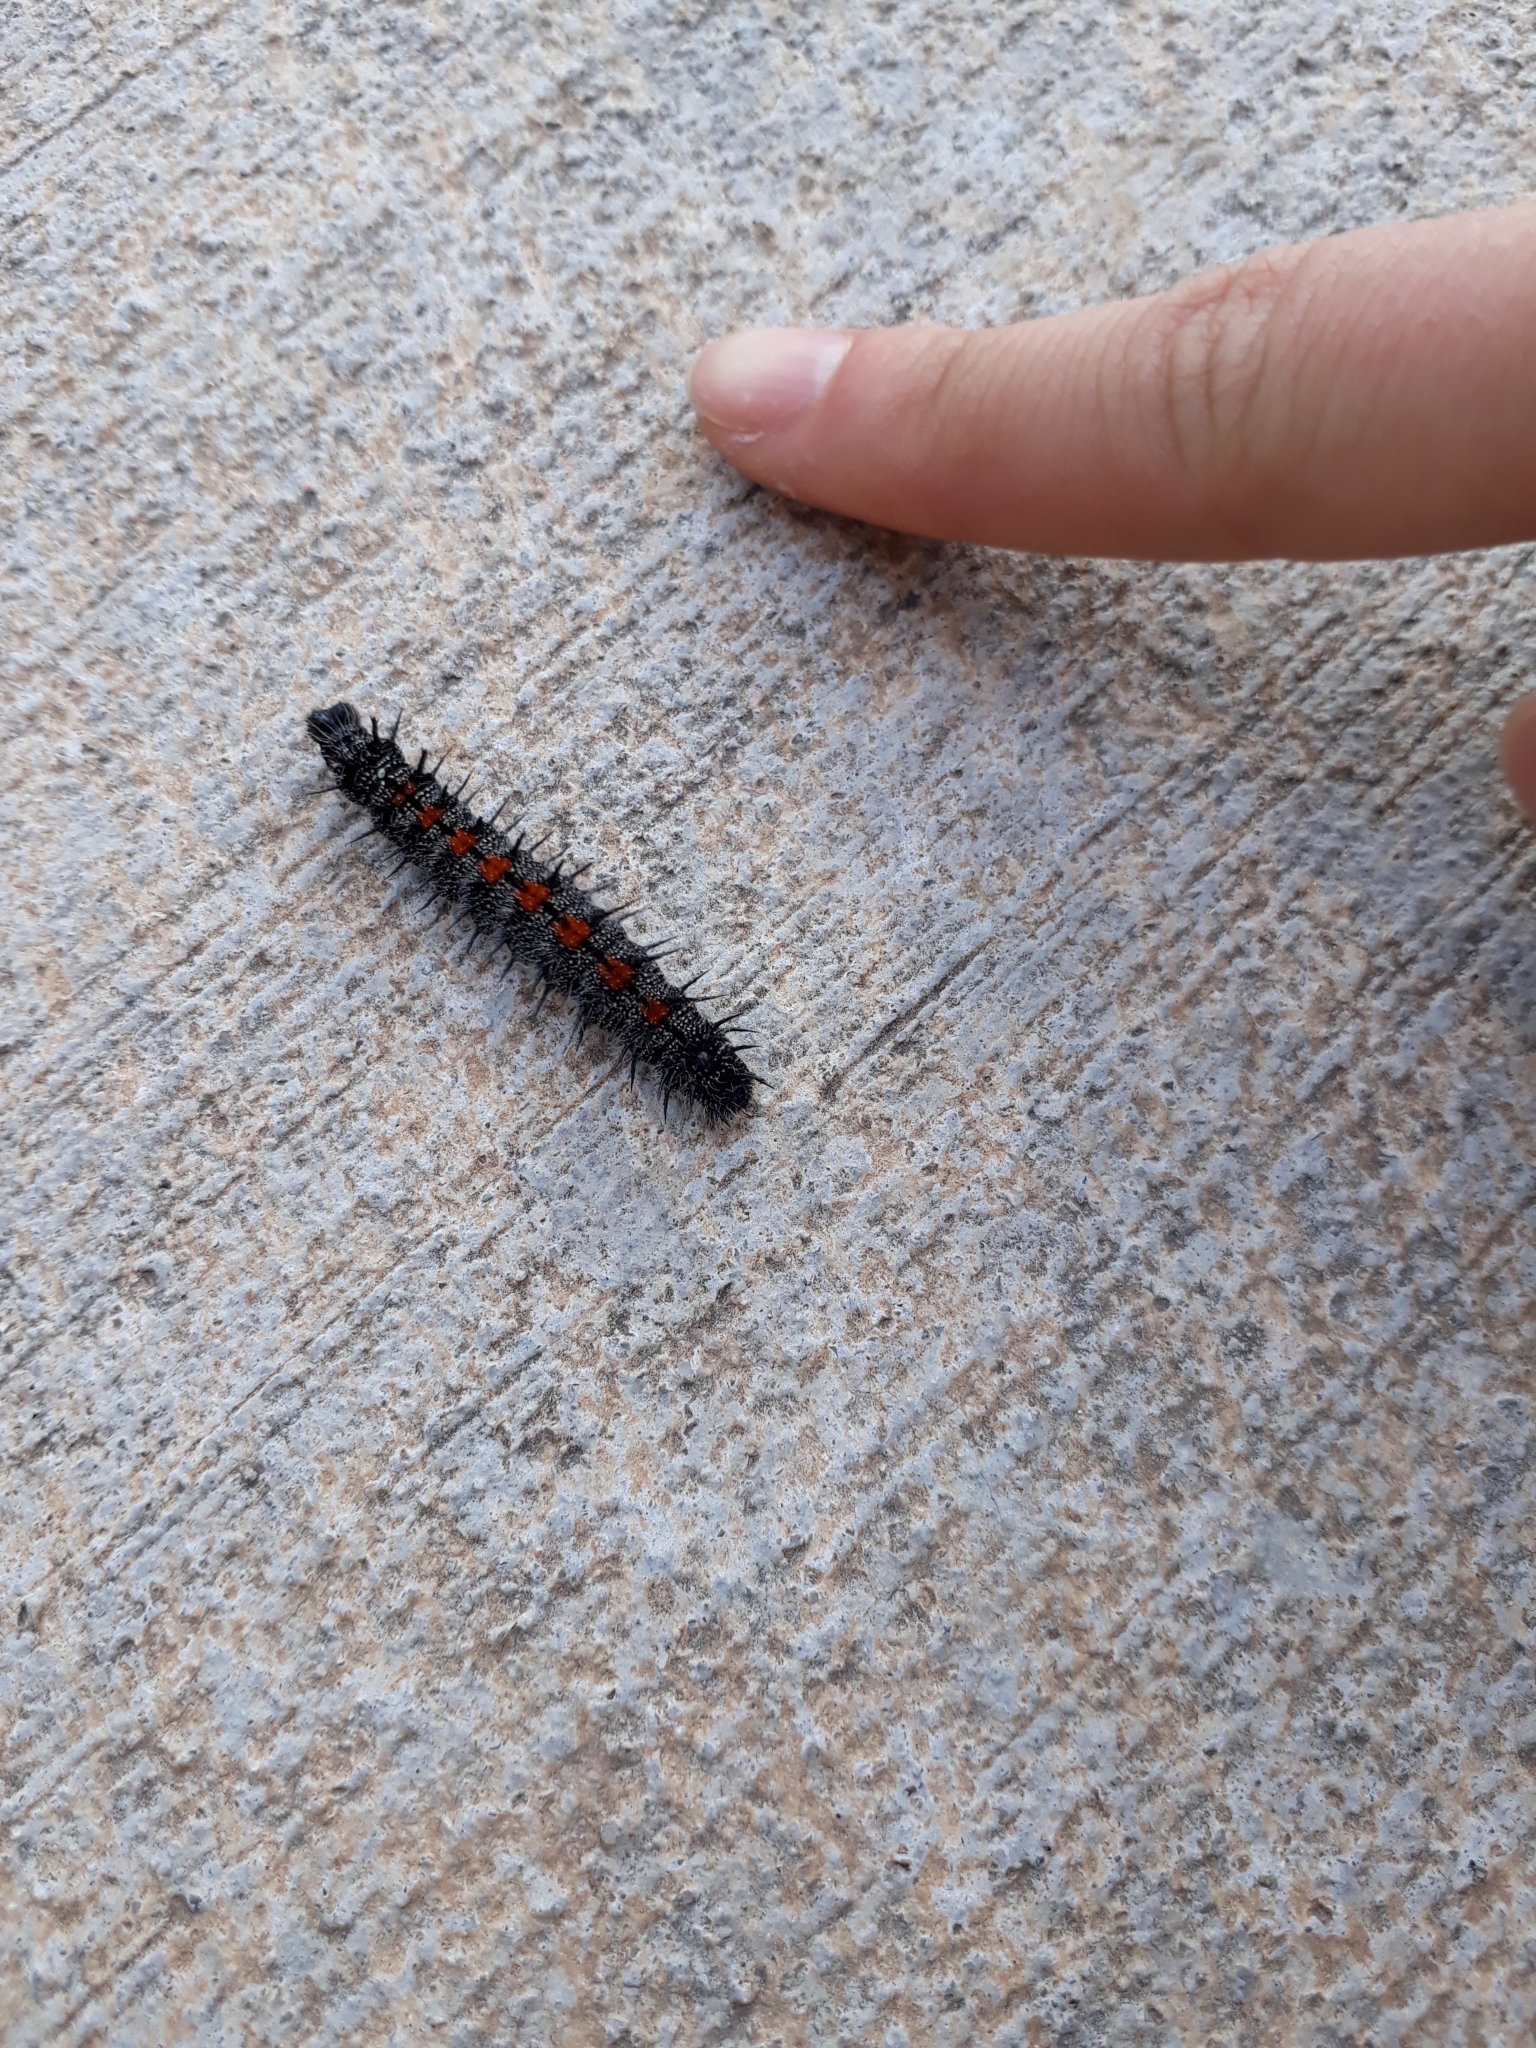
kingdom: Animalia
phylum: Arthropoda
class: Insecta
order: Lepidoptera
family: Nymphalidae
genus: Nymphalis
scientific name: Nymphalis antiopa
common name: Camberwell beauty
